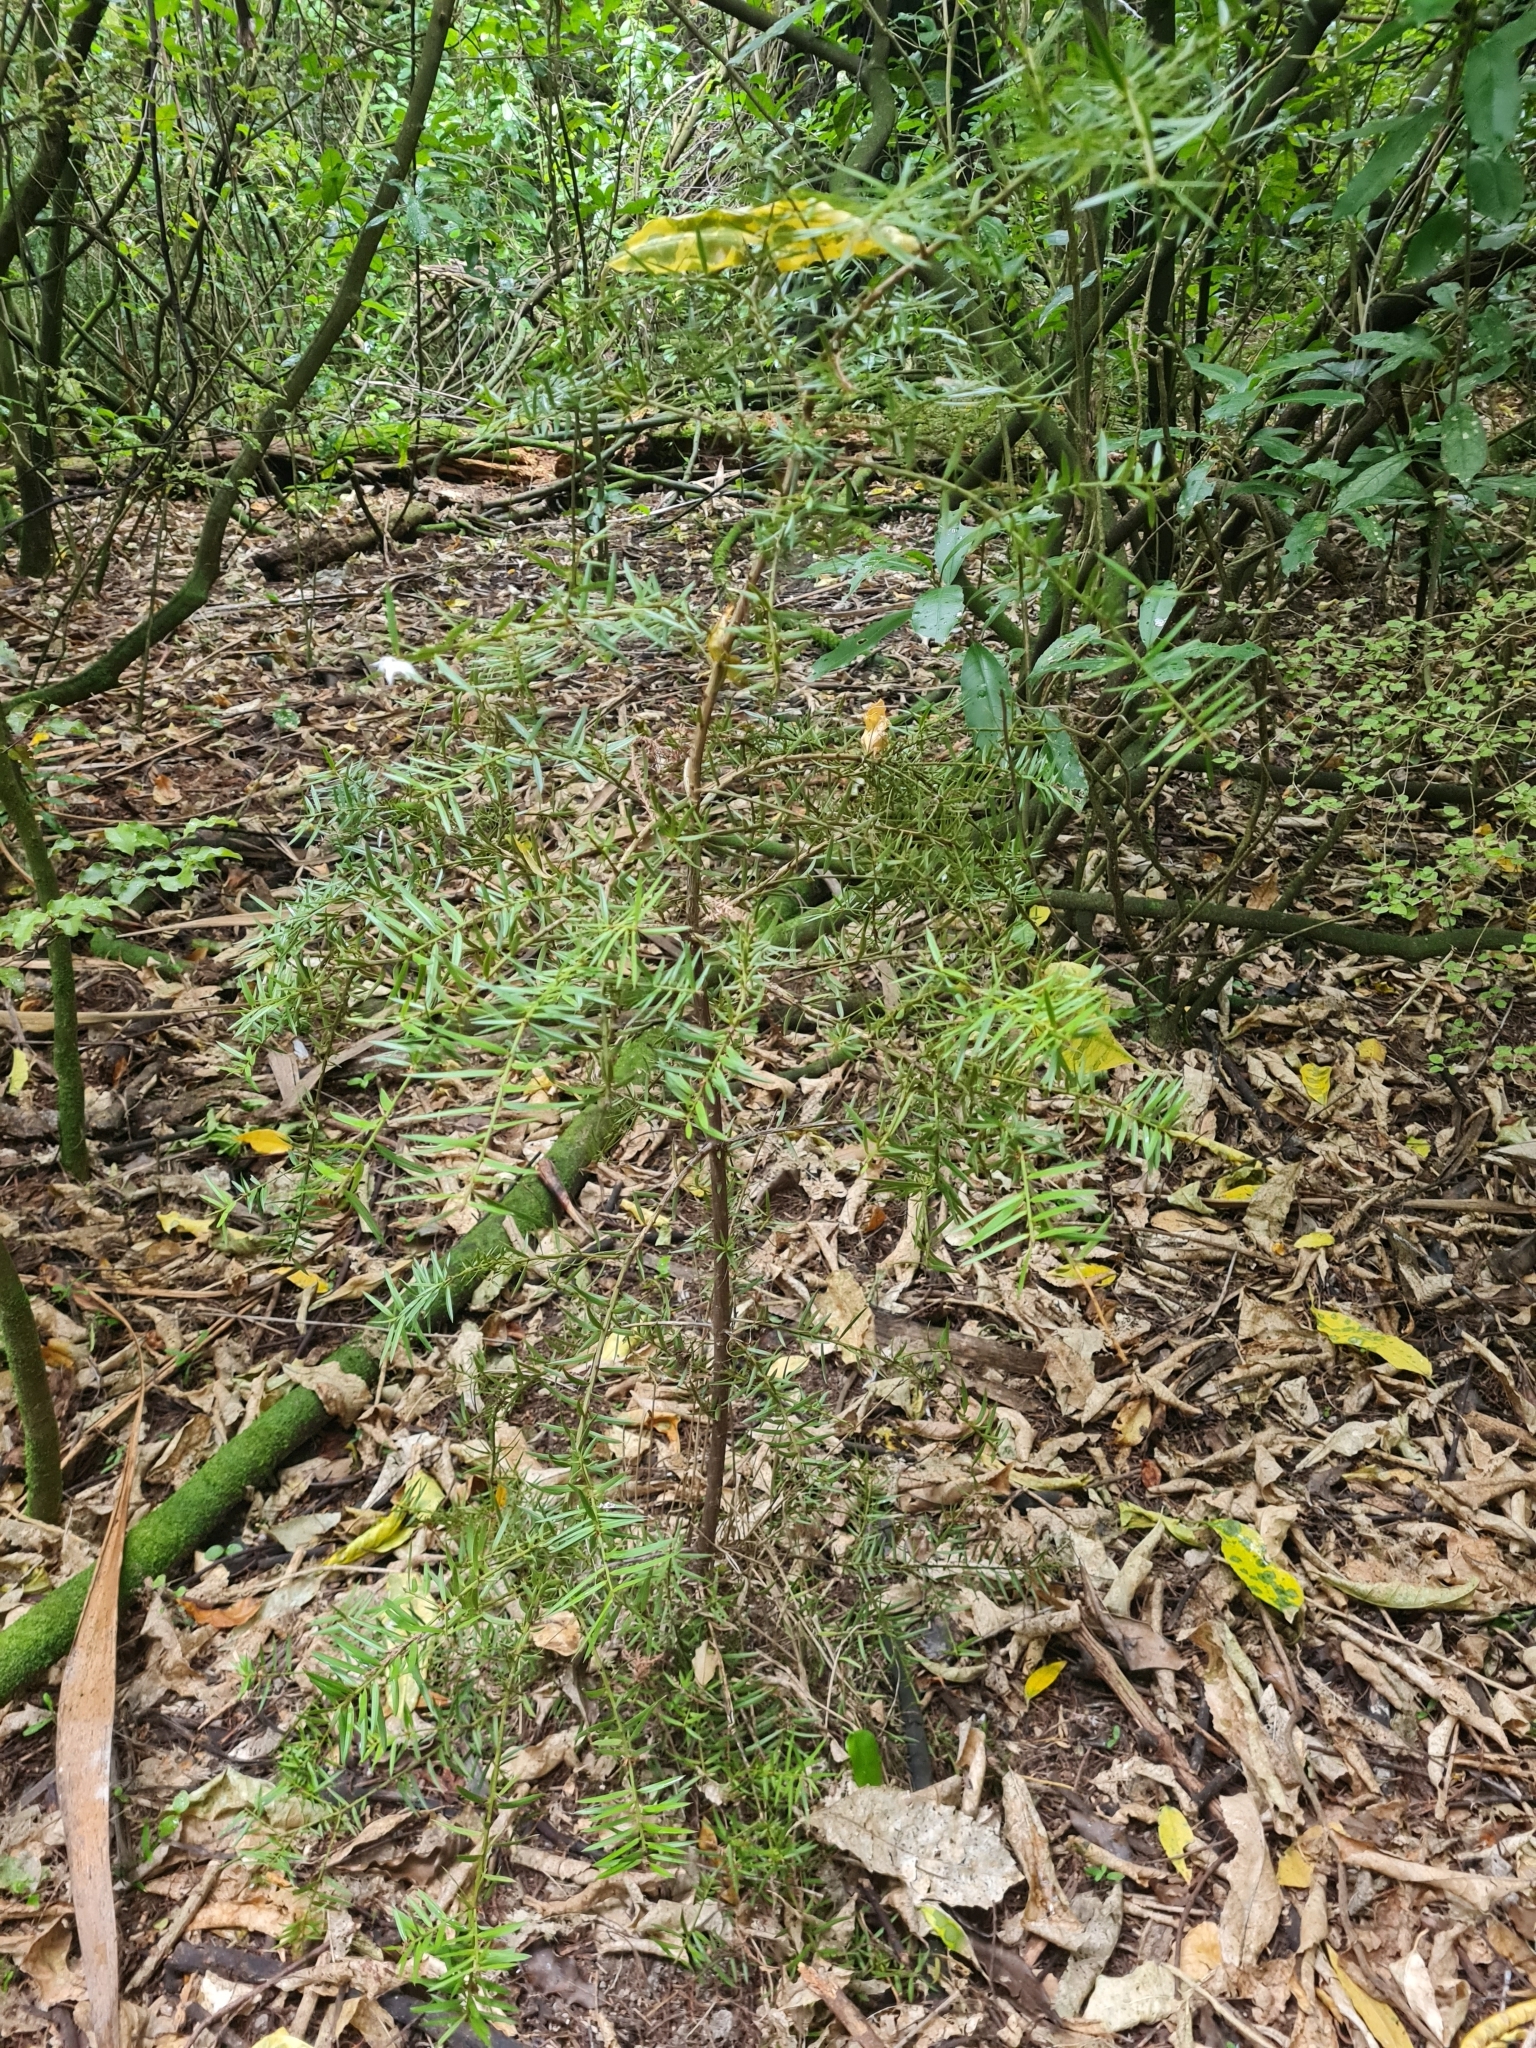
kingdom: Plantae
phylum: Tracheophyta
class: Pinopsida
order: Pinales
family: Podocarpaceae
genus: Podocarpus
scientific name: Podocarpus totara
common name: Totara
